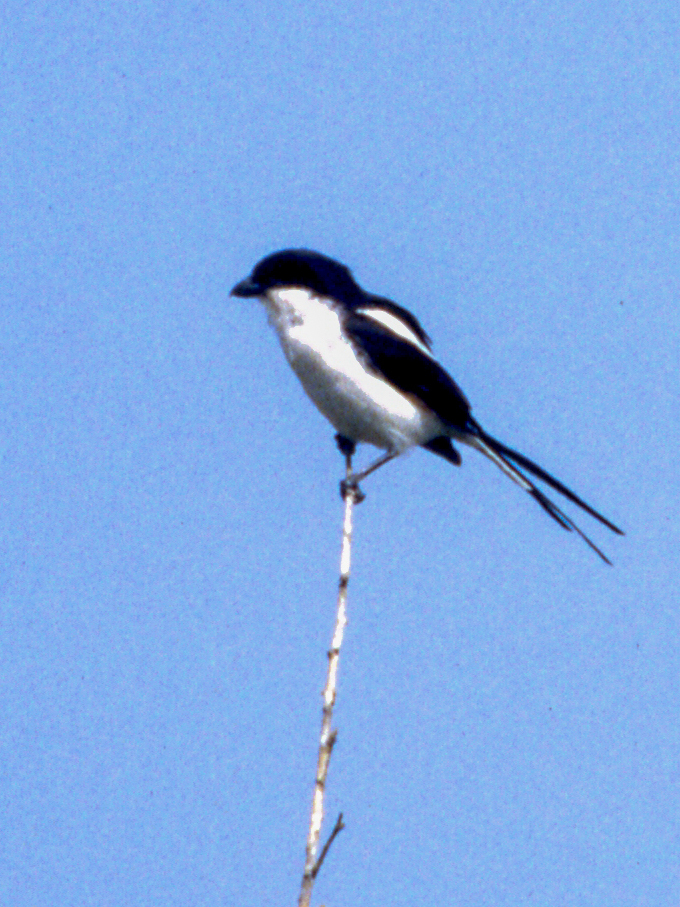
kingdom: Animalia
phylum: Chordata
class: Aves
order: Passeriformes
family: Laniidae
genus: Lanius
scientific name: Lanius humeralis
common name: Northern fiscal
